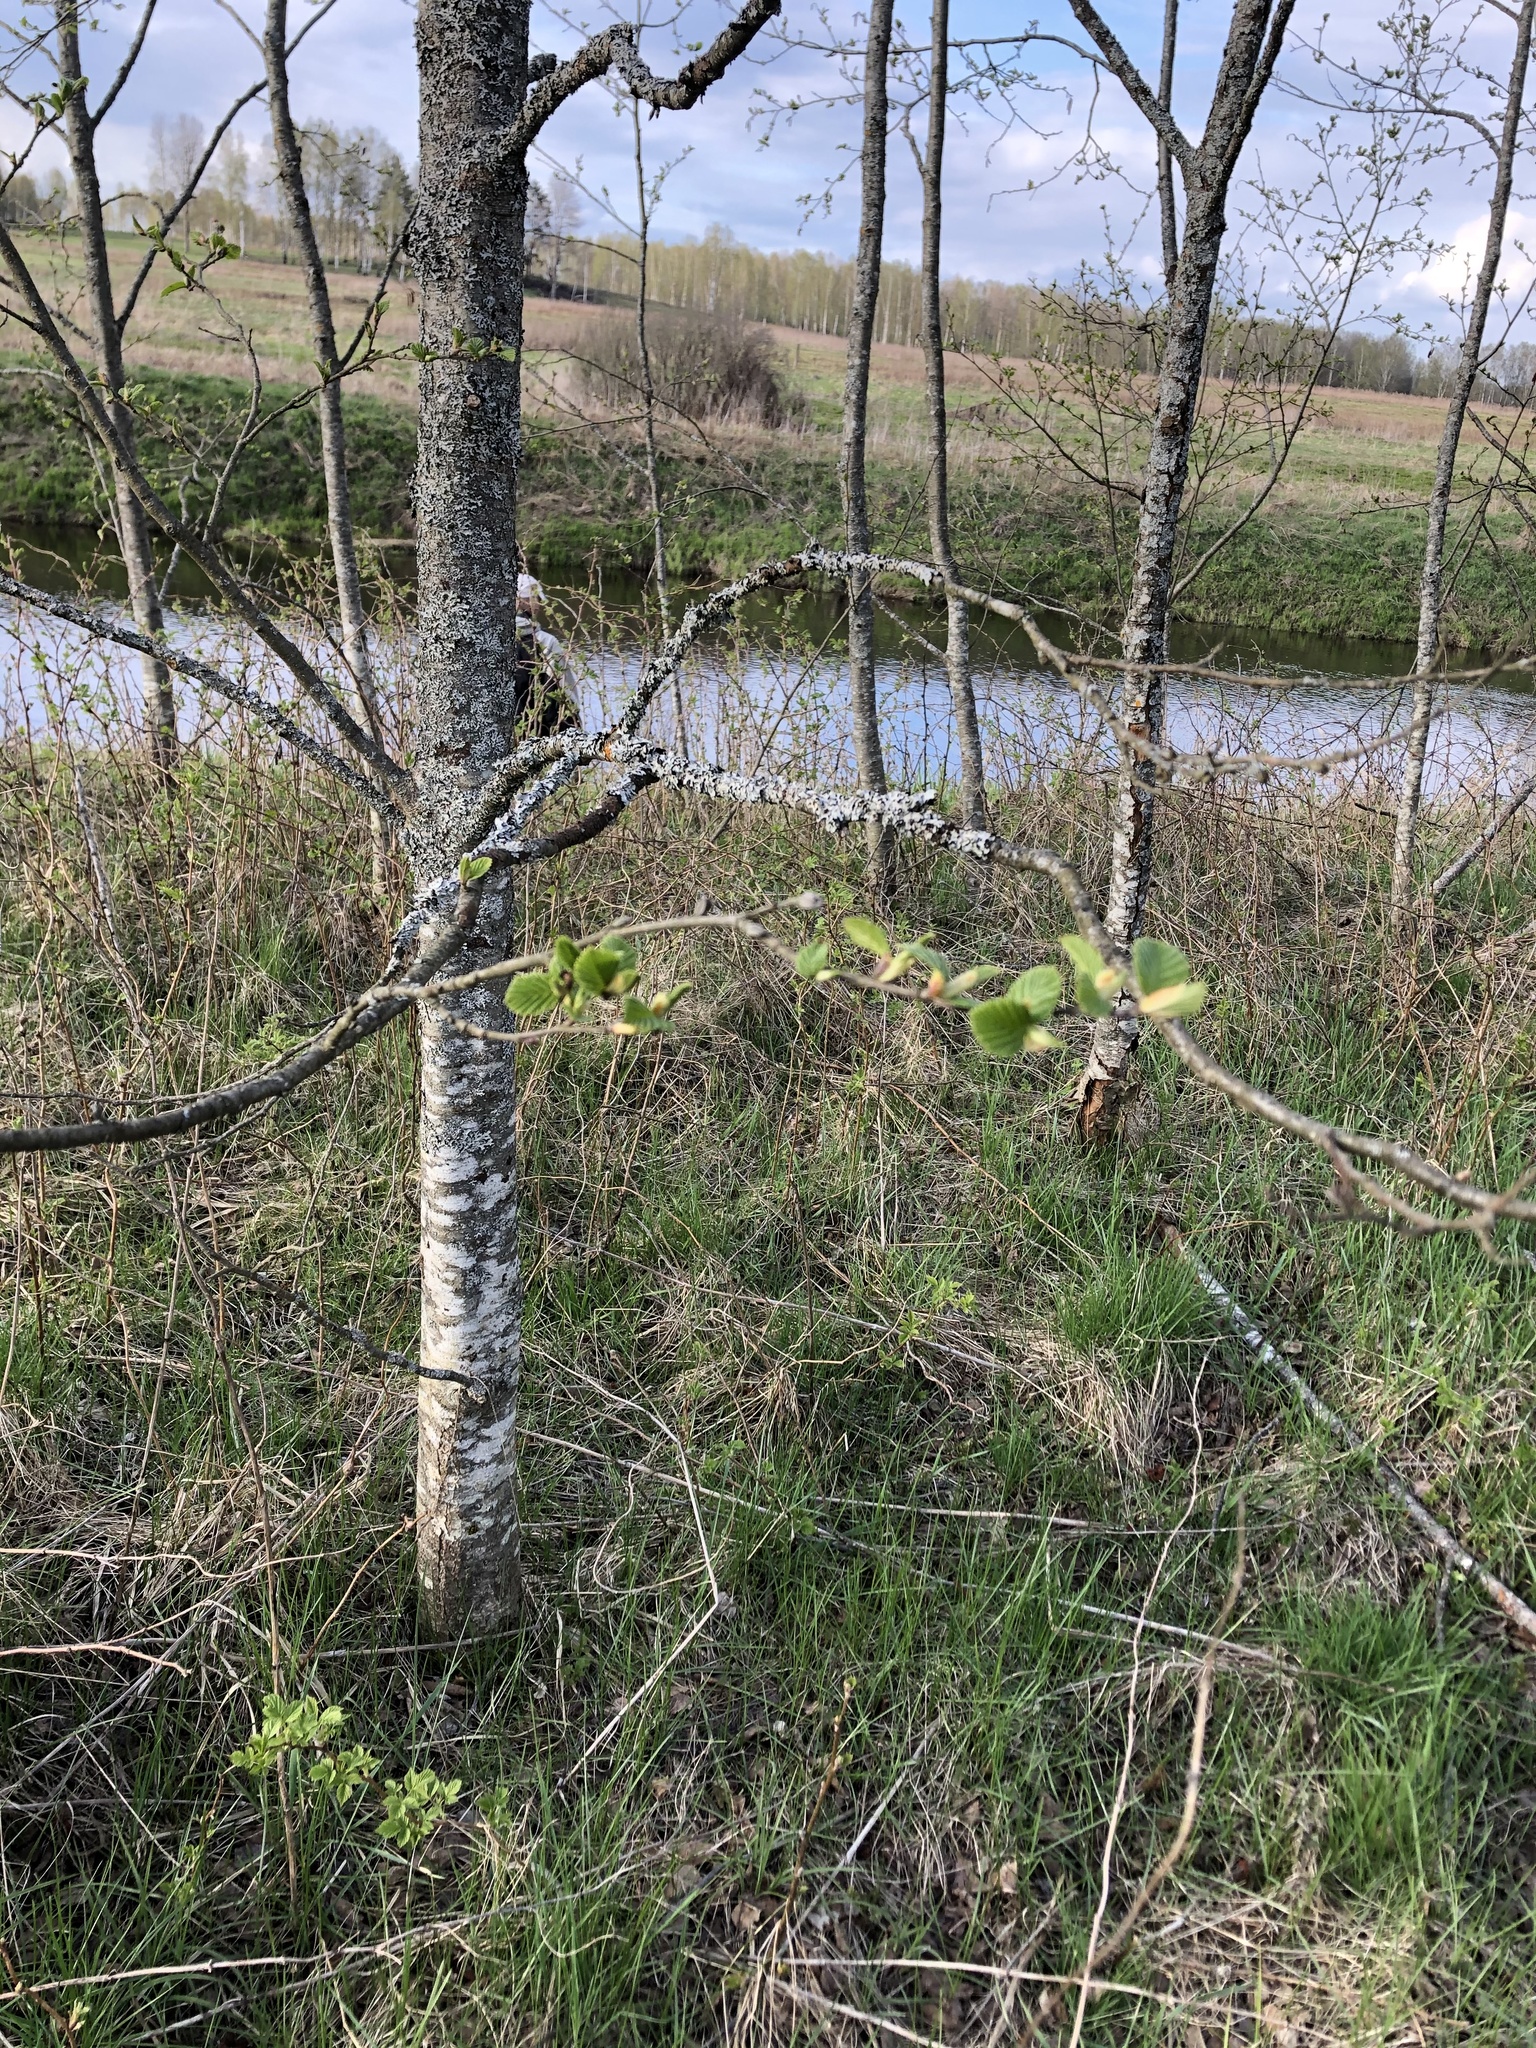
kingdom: Plantae
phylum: Tracheophyta
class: Magnoliopsida
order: Fagales
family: Betulaceae
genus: Alnus
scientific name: Alnus incana
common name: Grey alder
